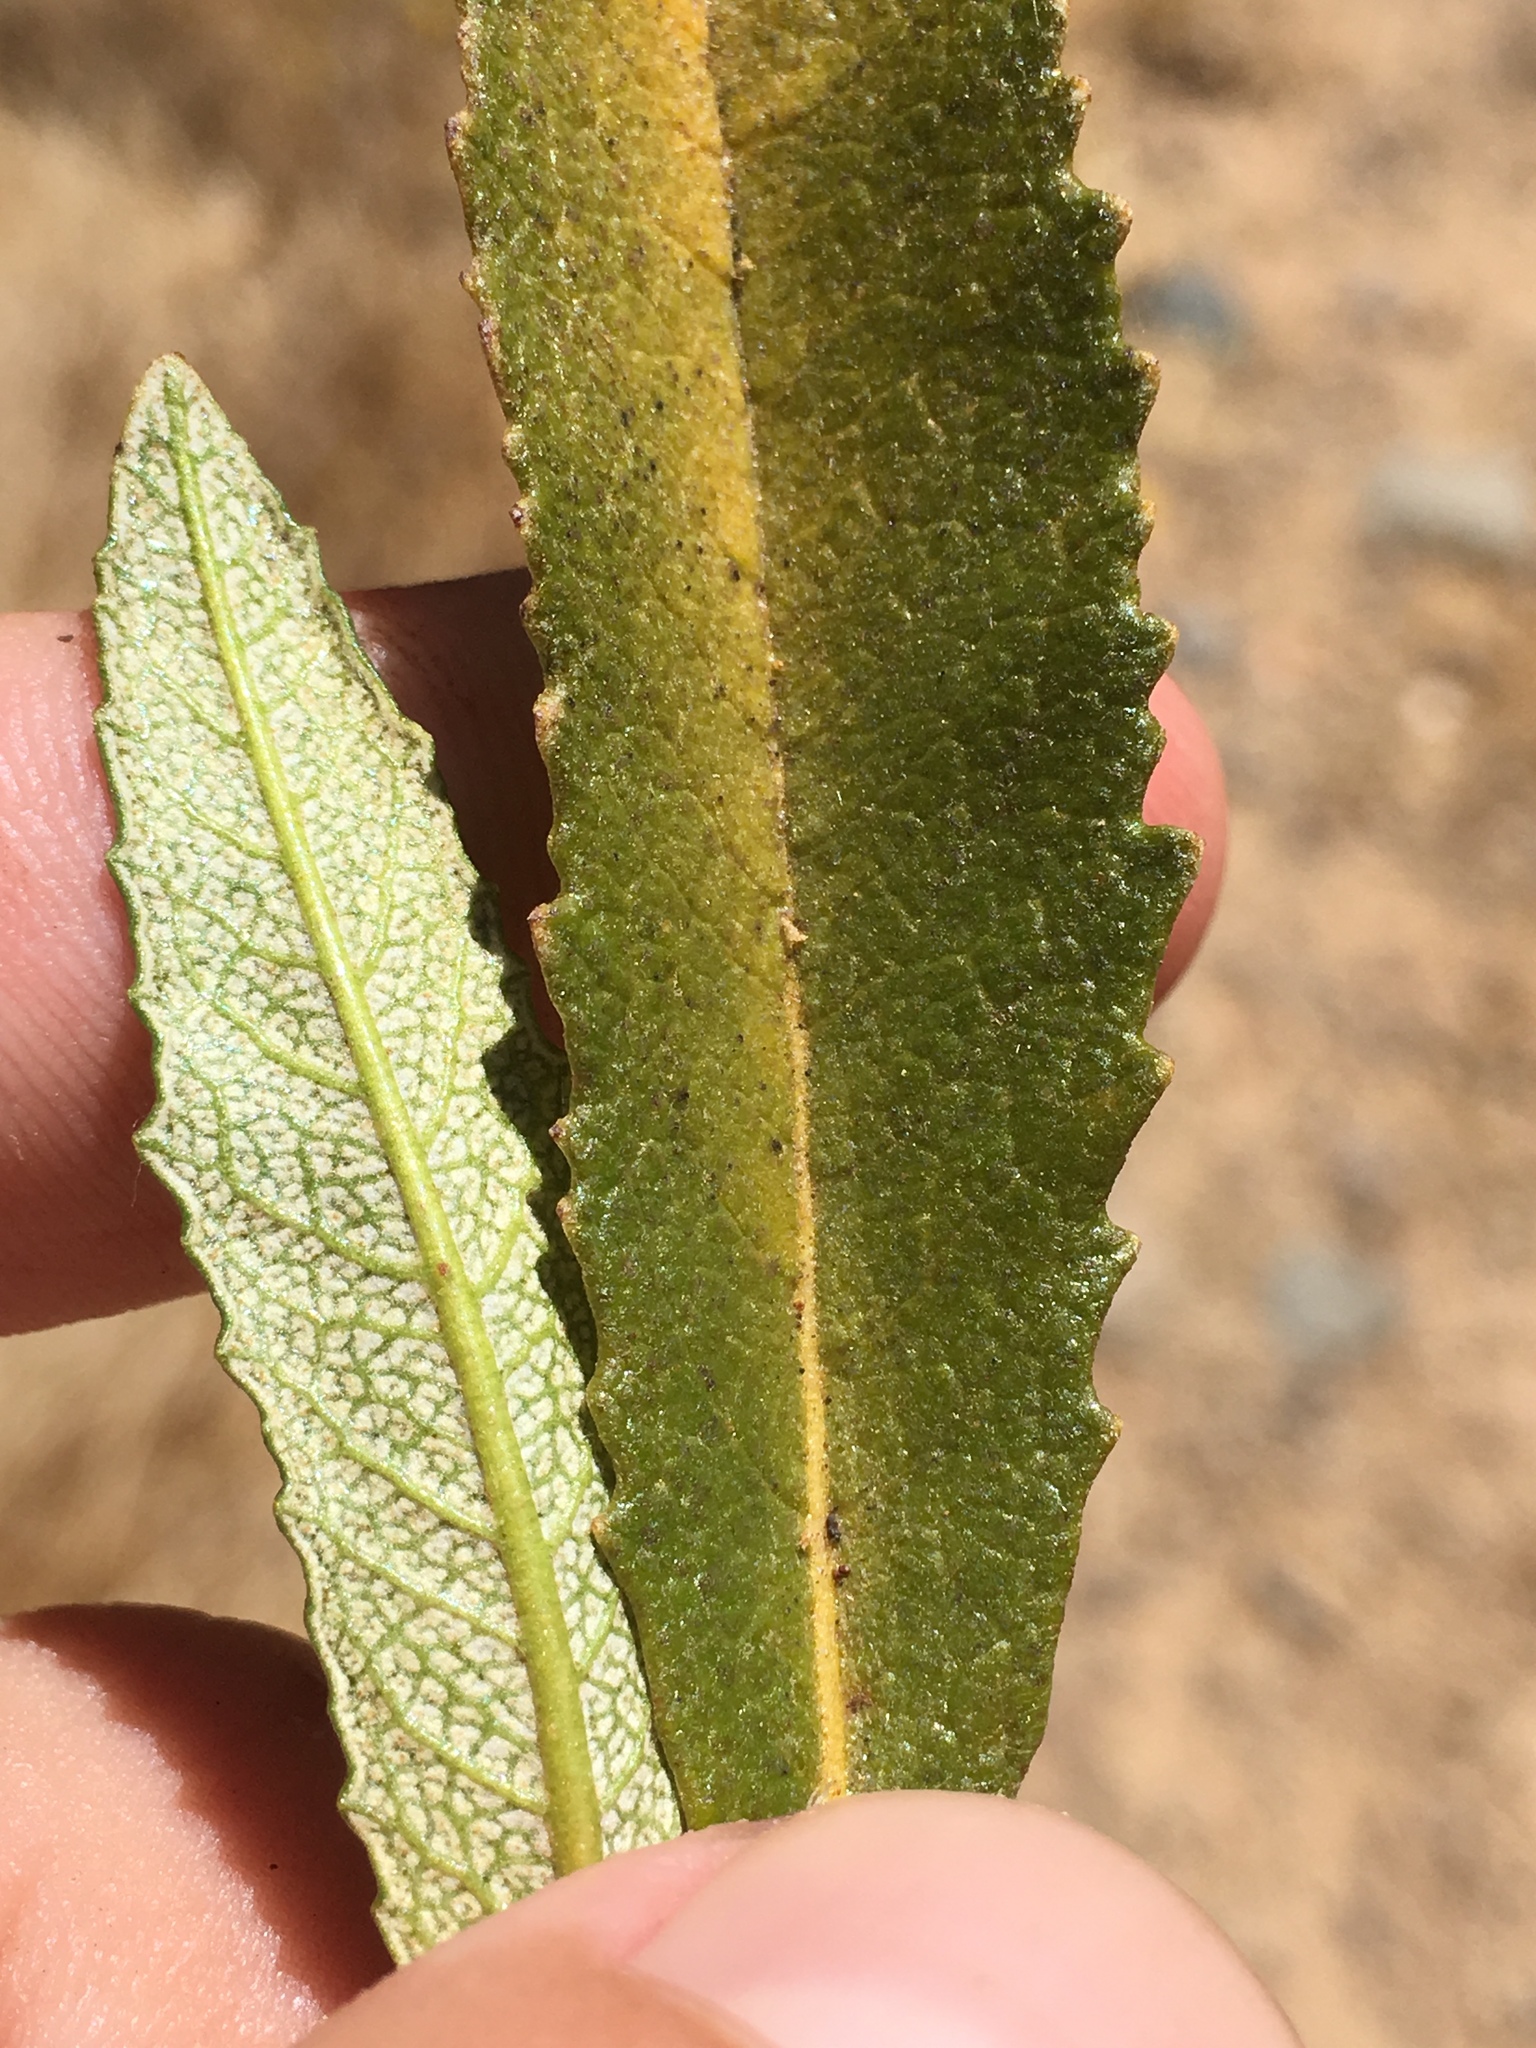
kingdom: Plantae
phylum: Tracheophyta
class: Magnoliopsida
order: Boraginales
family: Namaceae
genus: Eriodictyon
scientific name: Eriodictyon californicum
